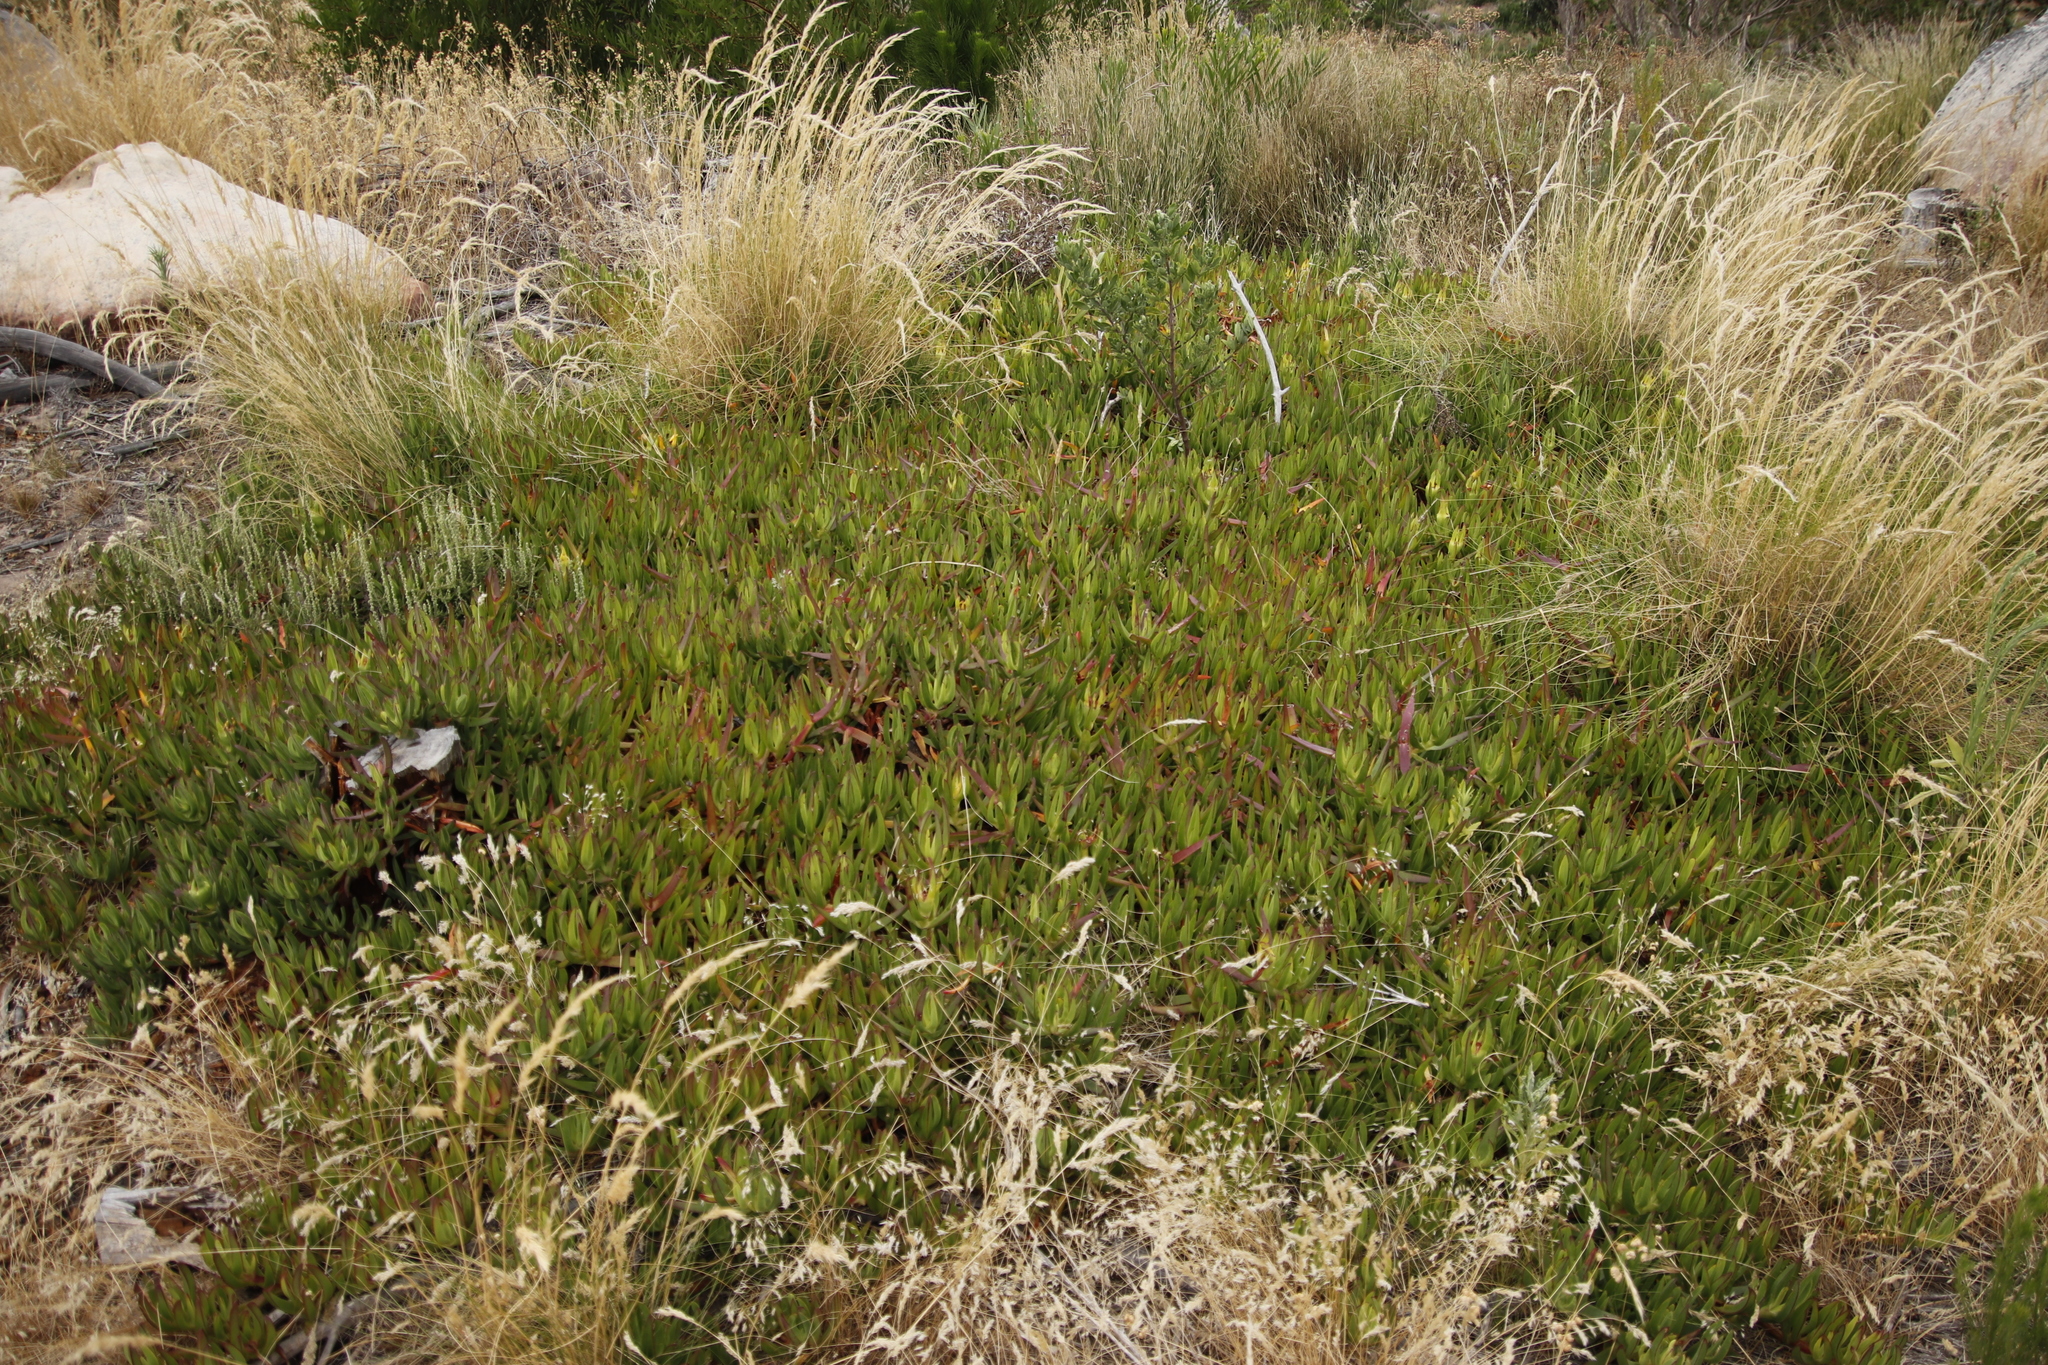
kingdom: Plantae
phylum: Tracheophyta
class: Magnoliopsida
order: Caryophyllales
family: Aizoaceae
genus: Carpobrotus
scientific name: Carpobrotus edulis
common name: Hottentot-fig
